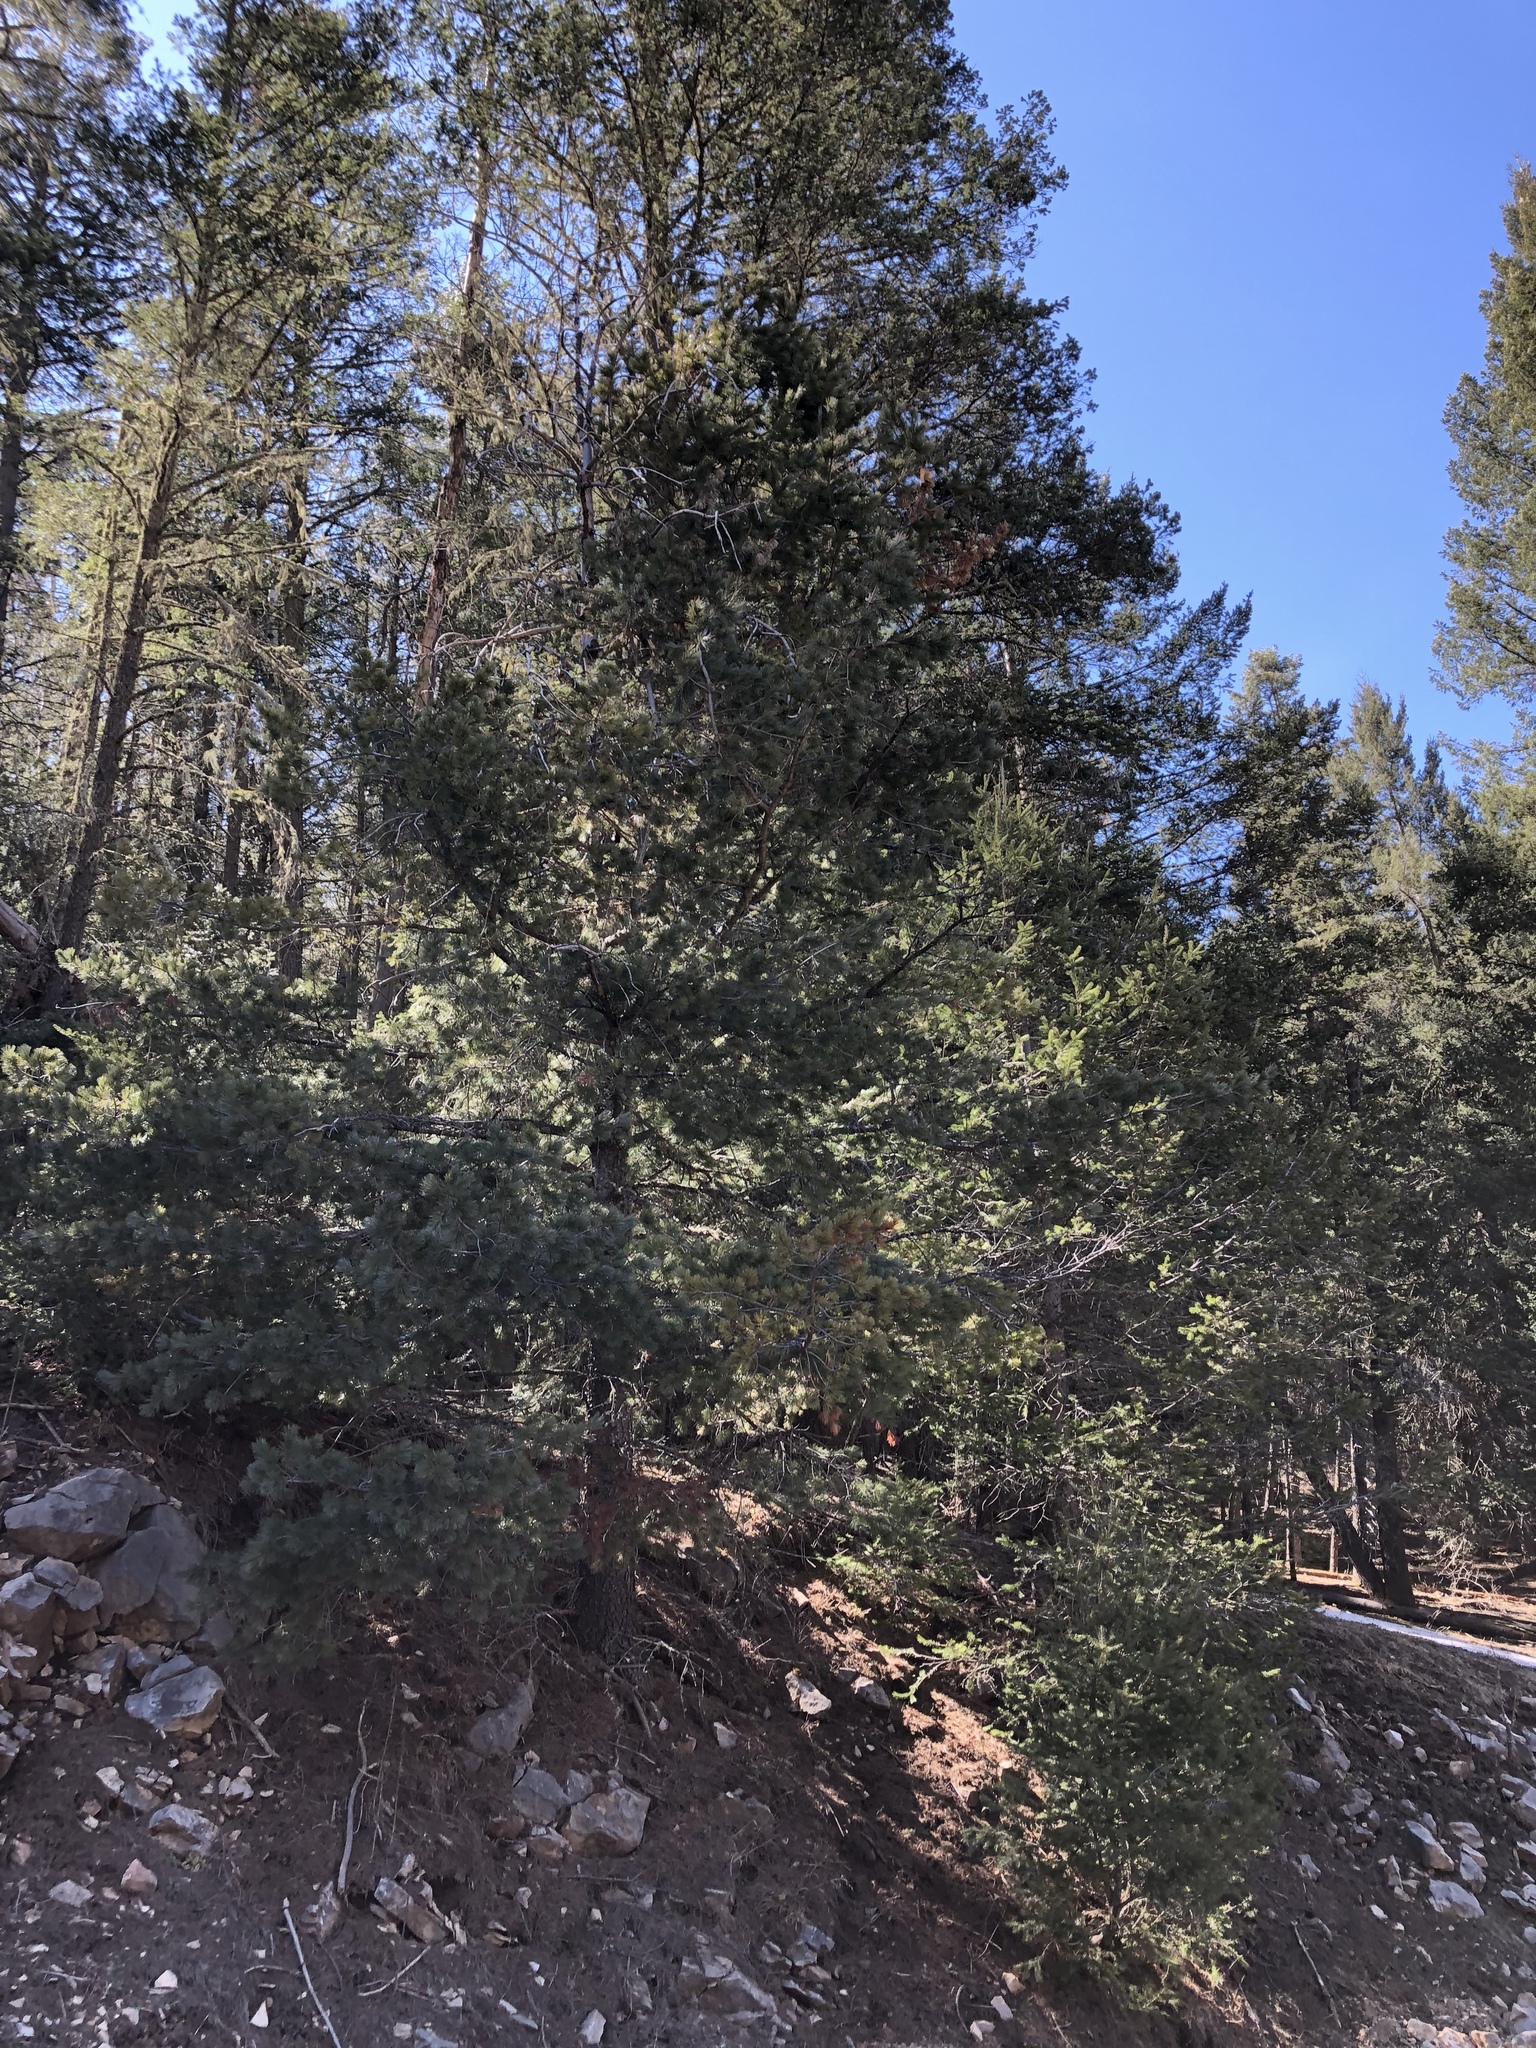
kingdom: Plantae
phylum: Tracheophyta
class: Pinopsida
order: Pinales
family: Pinaceae
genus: Pinus
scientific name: Pinus strobiformis
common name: Southwestern white pine
